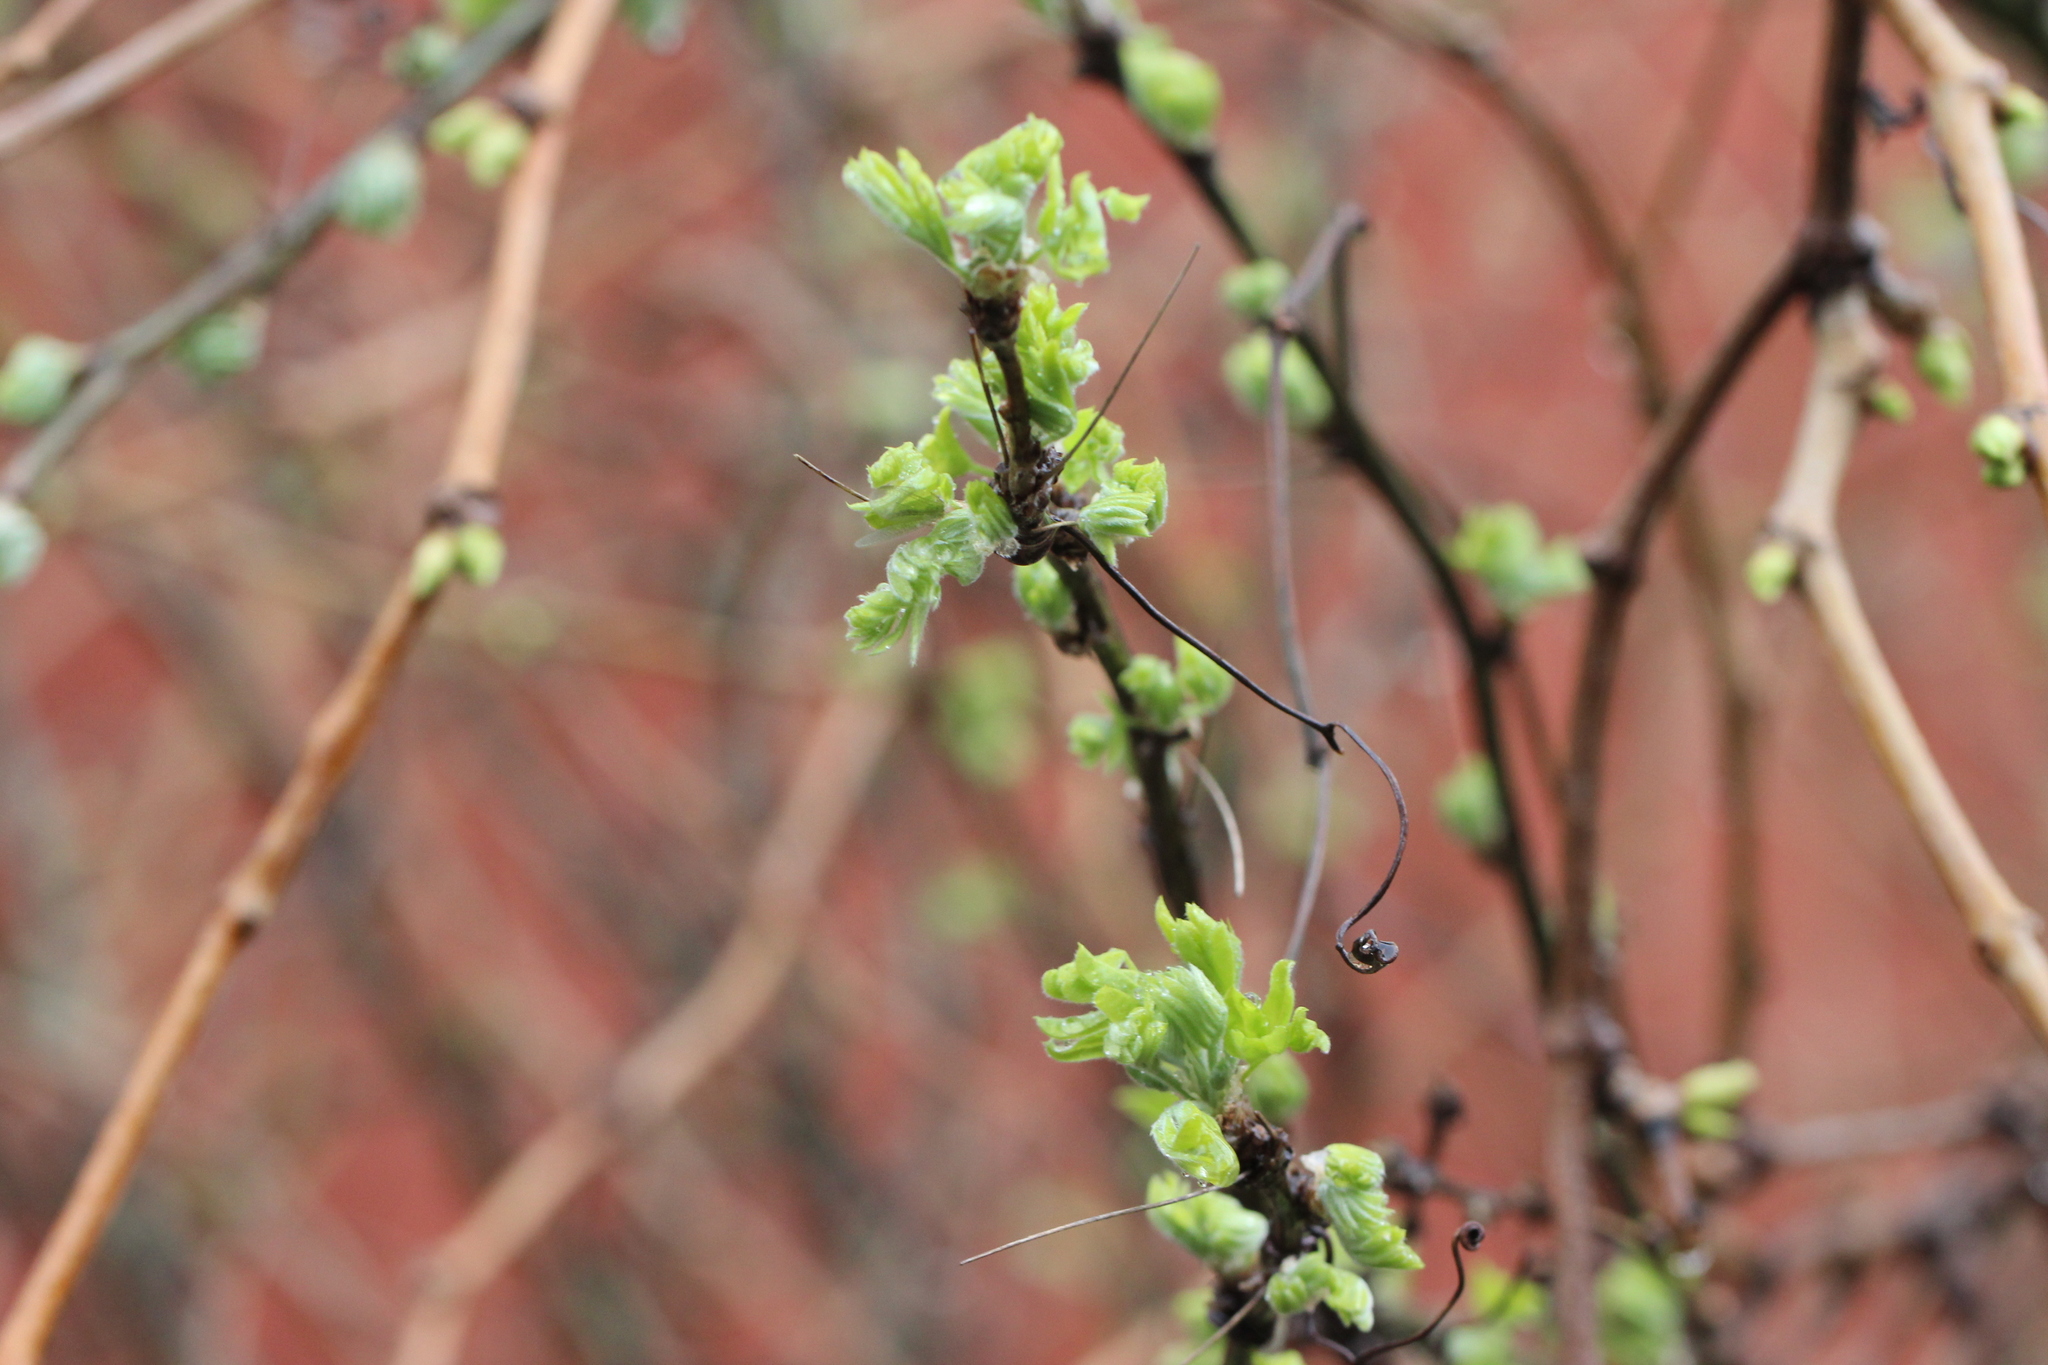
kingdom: Plantae
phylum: Tracheophyta
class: Magnoliopsida
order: Fabales
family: Fabaceae
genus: Caragana
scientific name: Caragana arborescens
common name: Siberian peashrub
